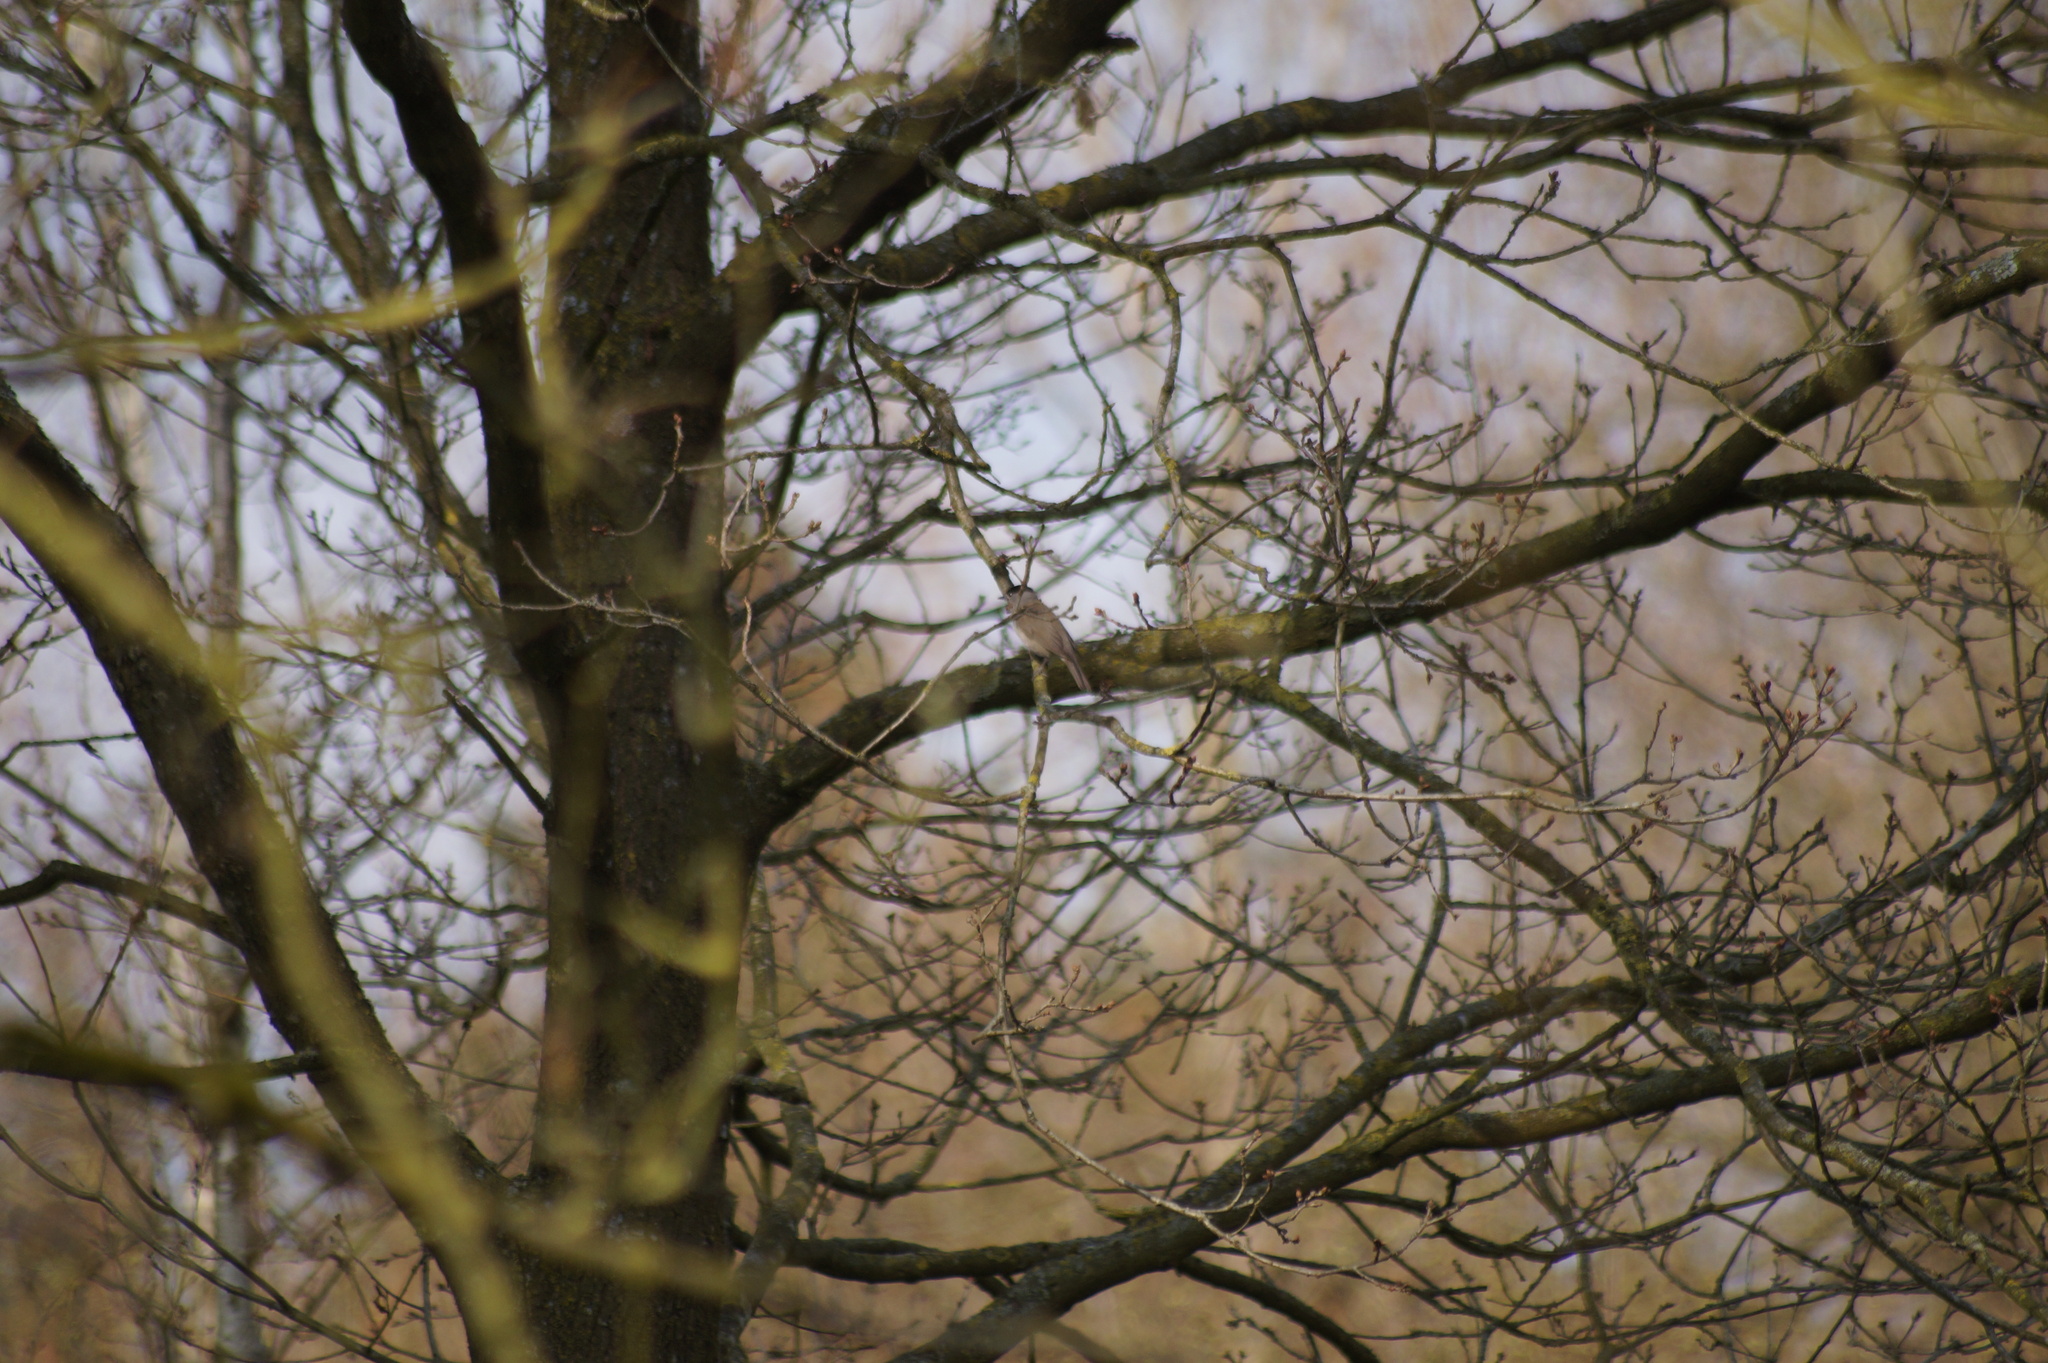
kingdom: Animalia
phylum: Chordata
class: Aves
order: Passeriformes
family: Sylviidae
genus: Sylvia
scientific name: Sylvia atricapilla
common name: Eurasian blackcap
